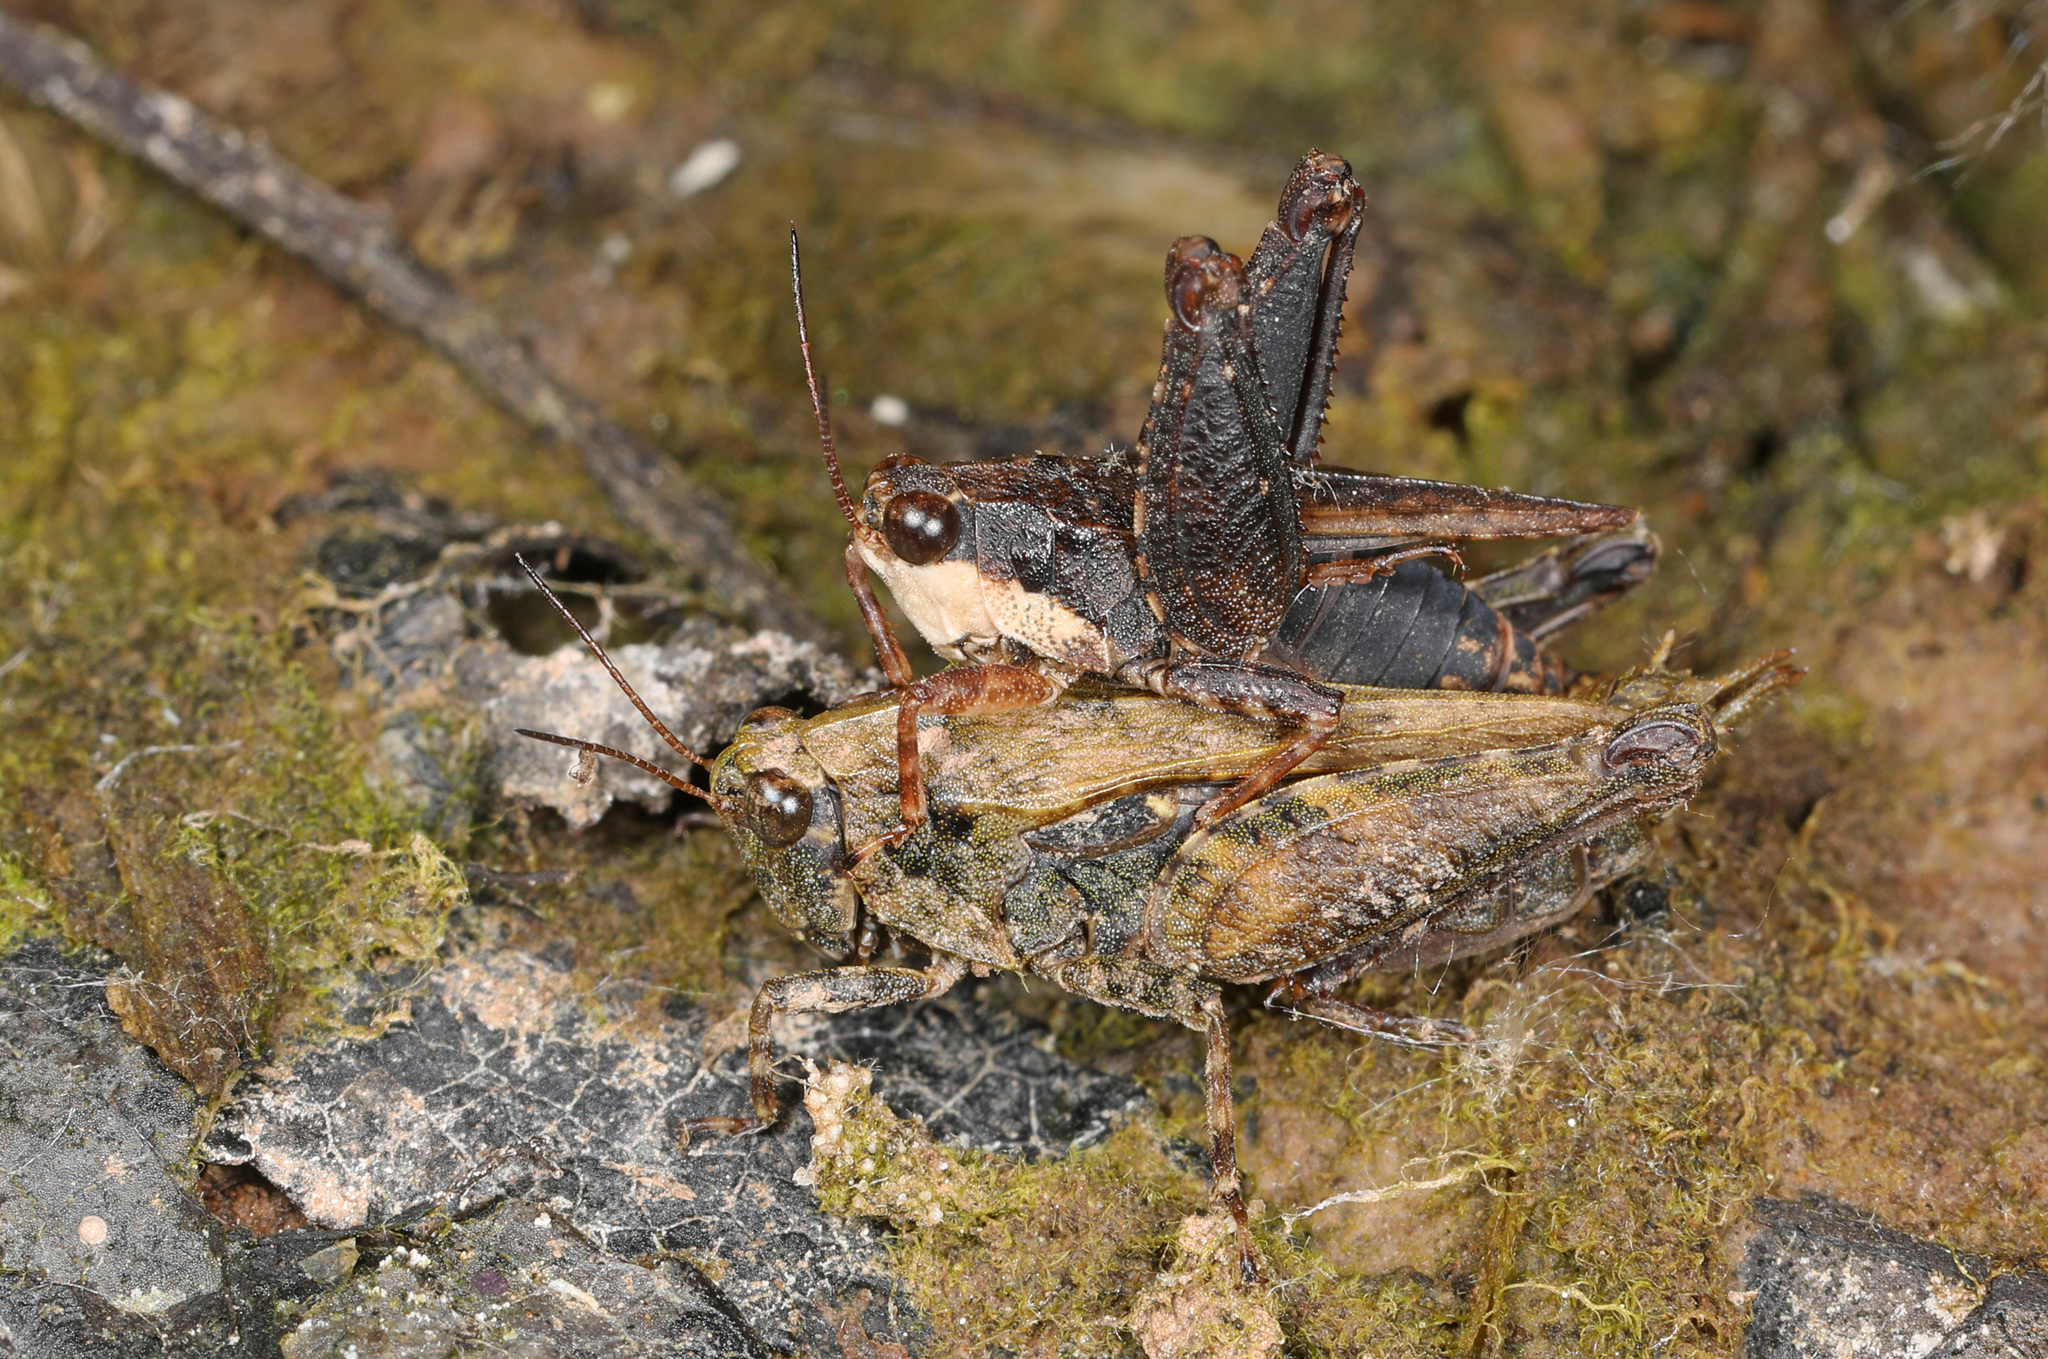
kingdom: Animalia
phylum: Arthropoda
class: Insecta
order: Orthoptera
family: Tetrigidae
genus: Tettigidea
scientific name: Tettigidea laterale
